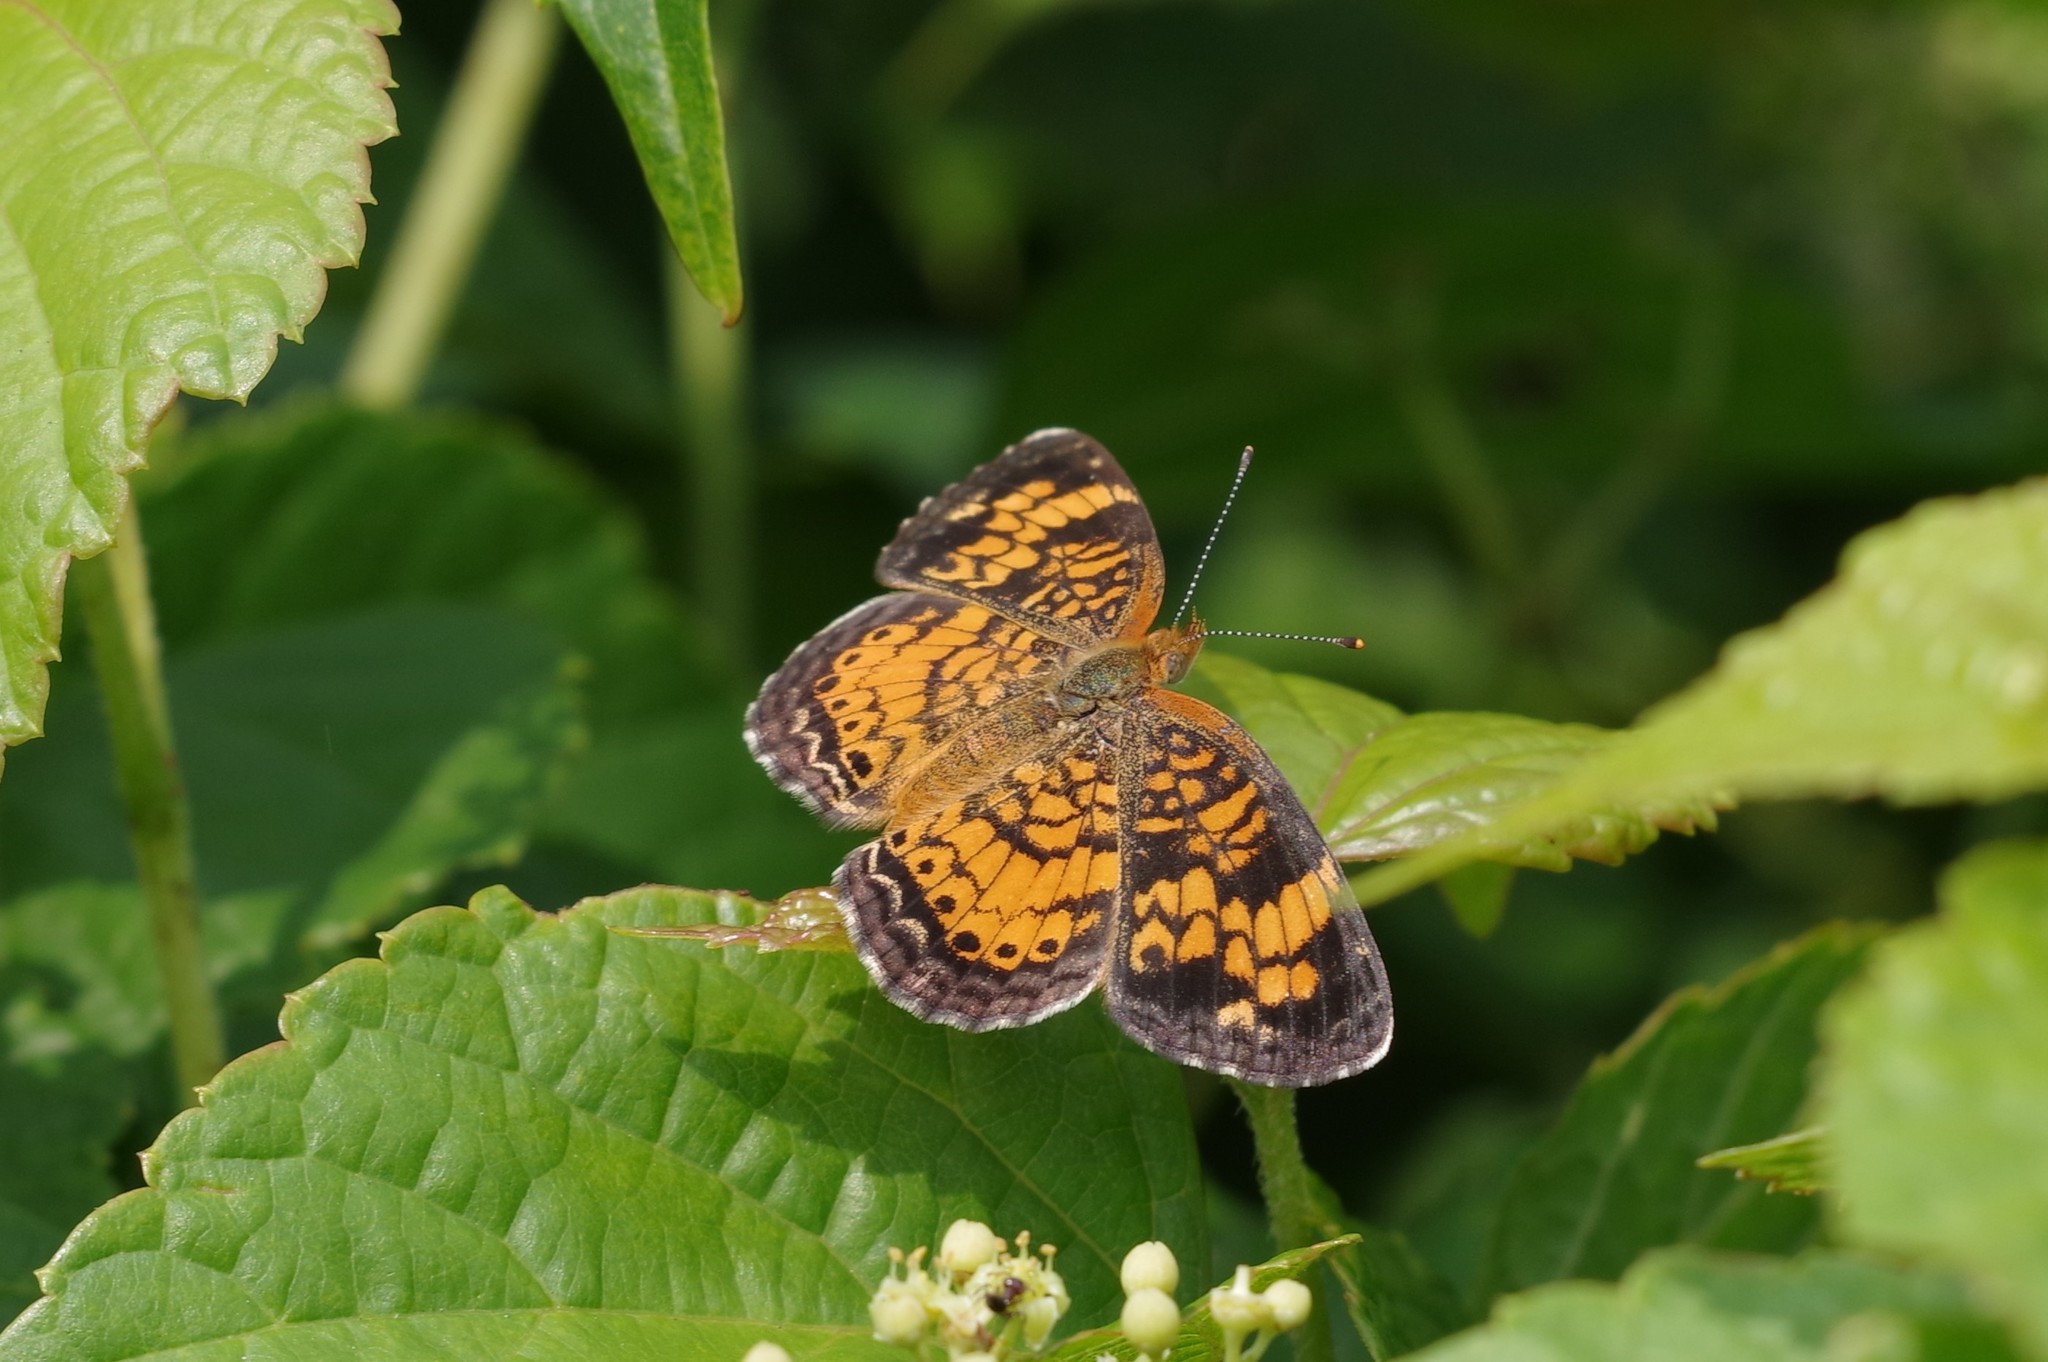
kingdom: Animalia
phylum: Arthropoda
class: Insecta
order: Lepidoptera
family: Nymphalidae
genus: Phyciodes
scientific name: Phyciodes tharos
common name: Pearl crescent
